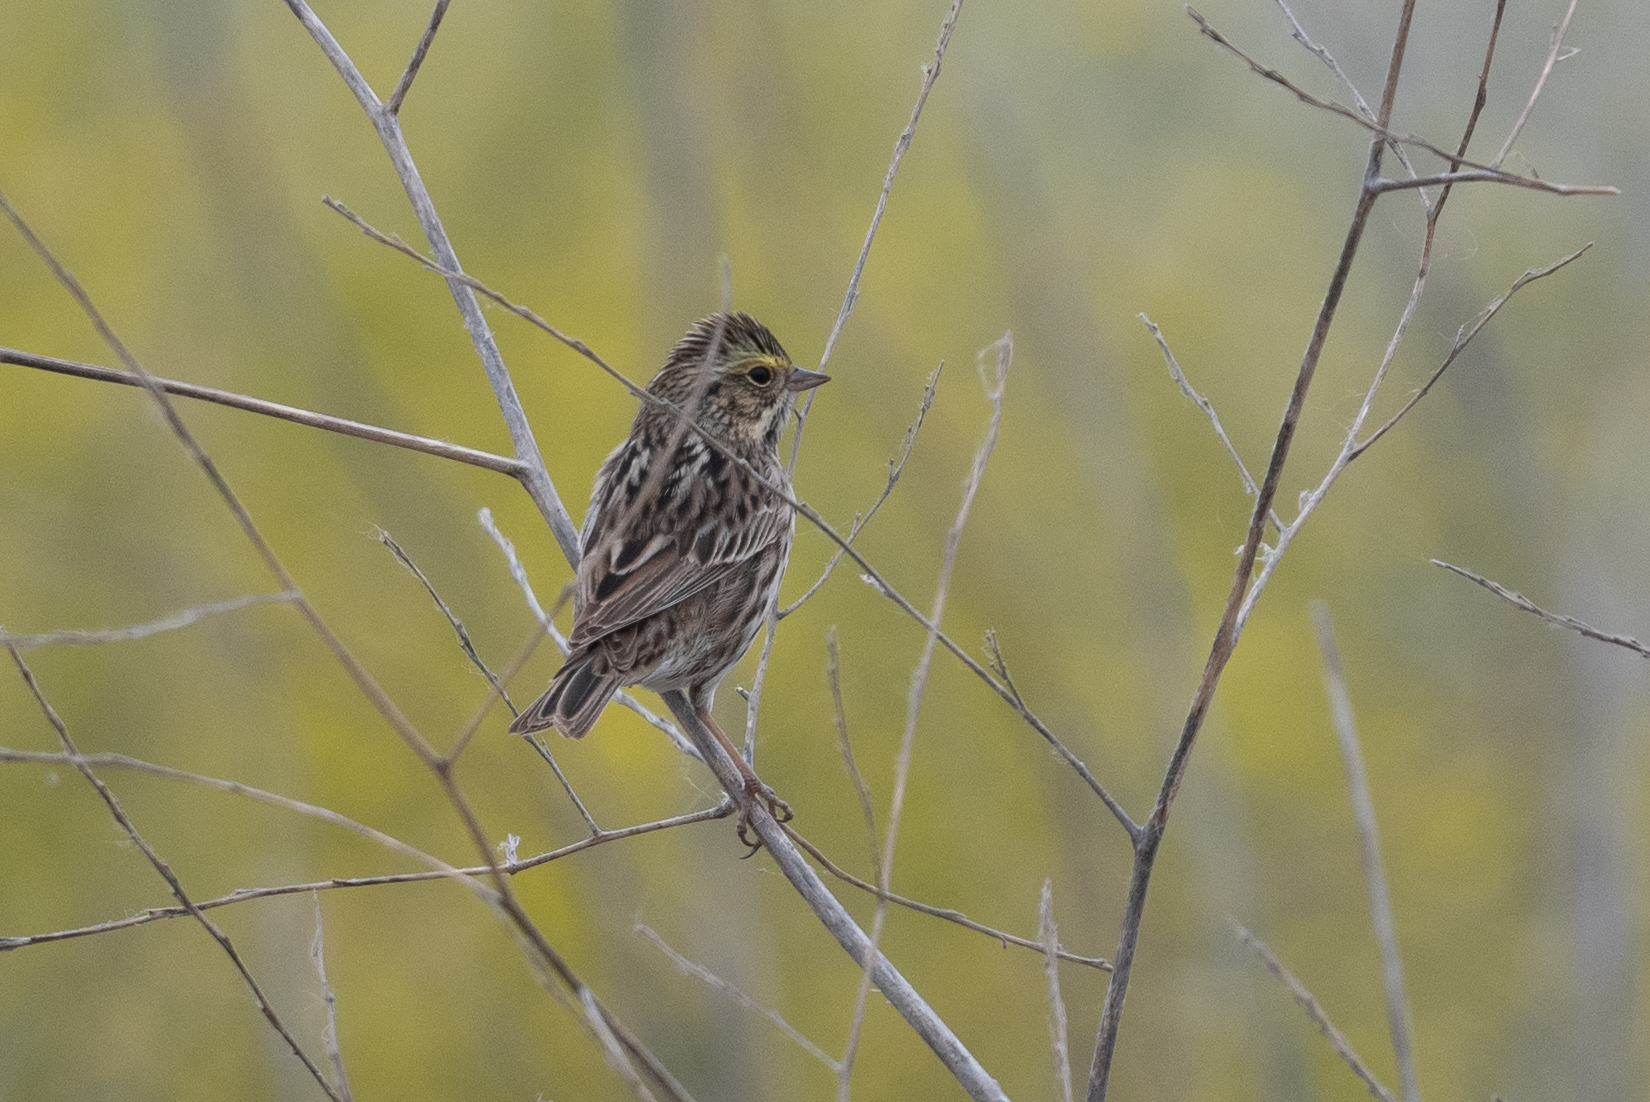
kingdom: Animalia
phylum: Chordata
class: Aves
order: Passeriformes
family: Passerellidae
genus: Passerculus
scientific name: Passerculus sandwichensis
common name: Savannah sparrow
